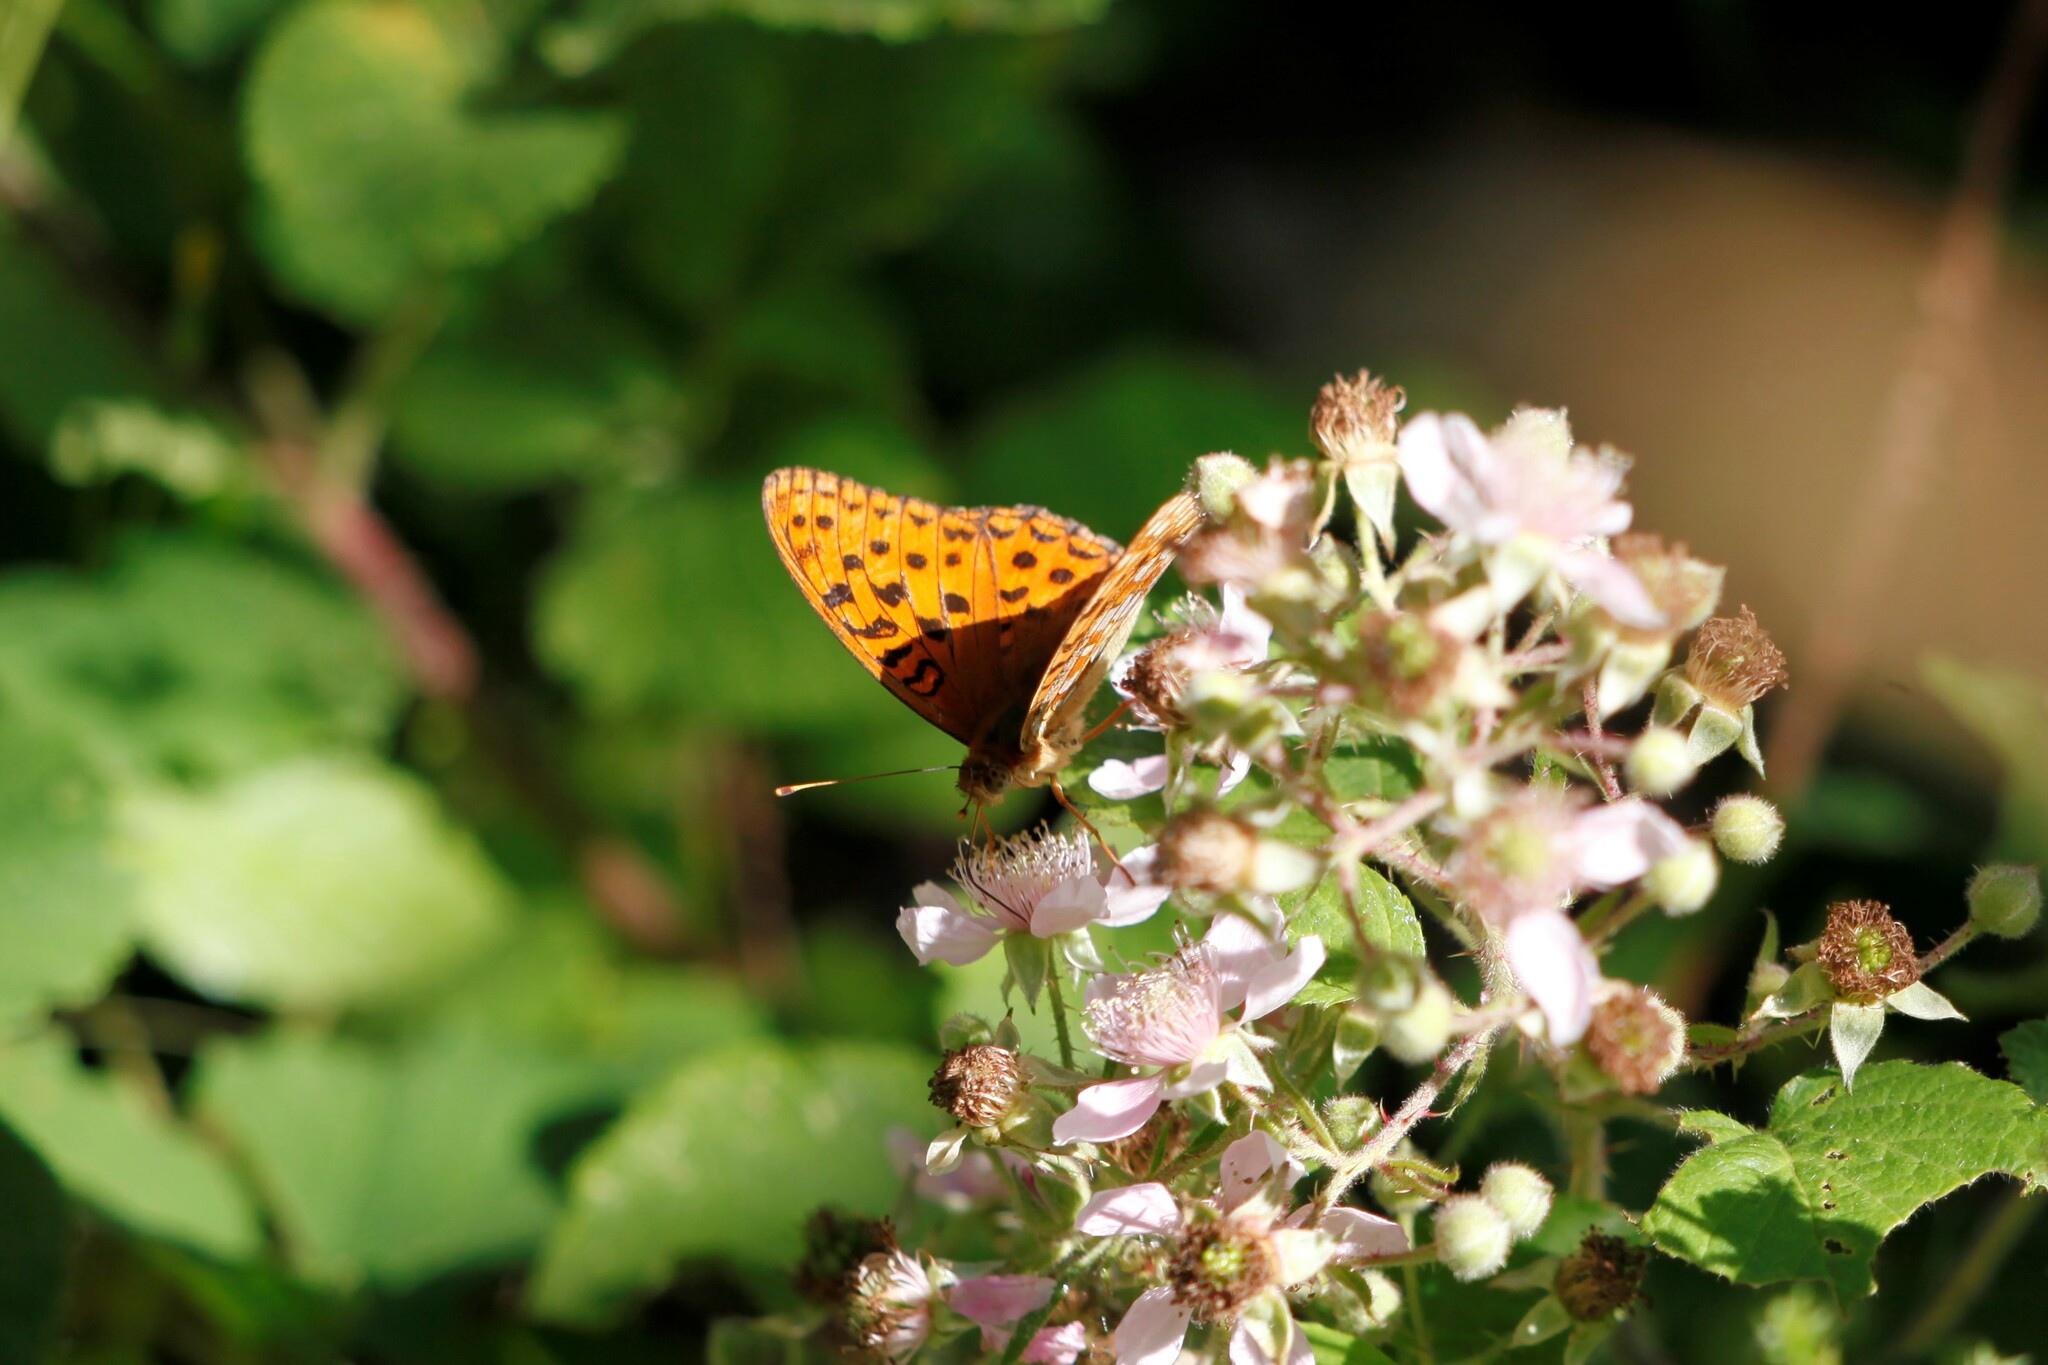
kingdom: Animalia
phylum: Arthropoda
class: Insecta
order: Lepidoptera
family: Nymphalidae
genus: Fabriciana
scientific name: Fabriciana adippe
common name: High brown fritillary
